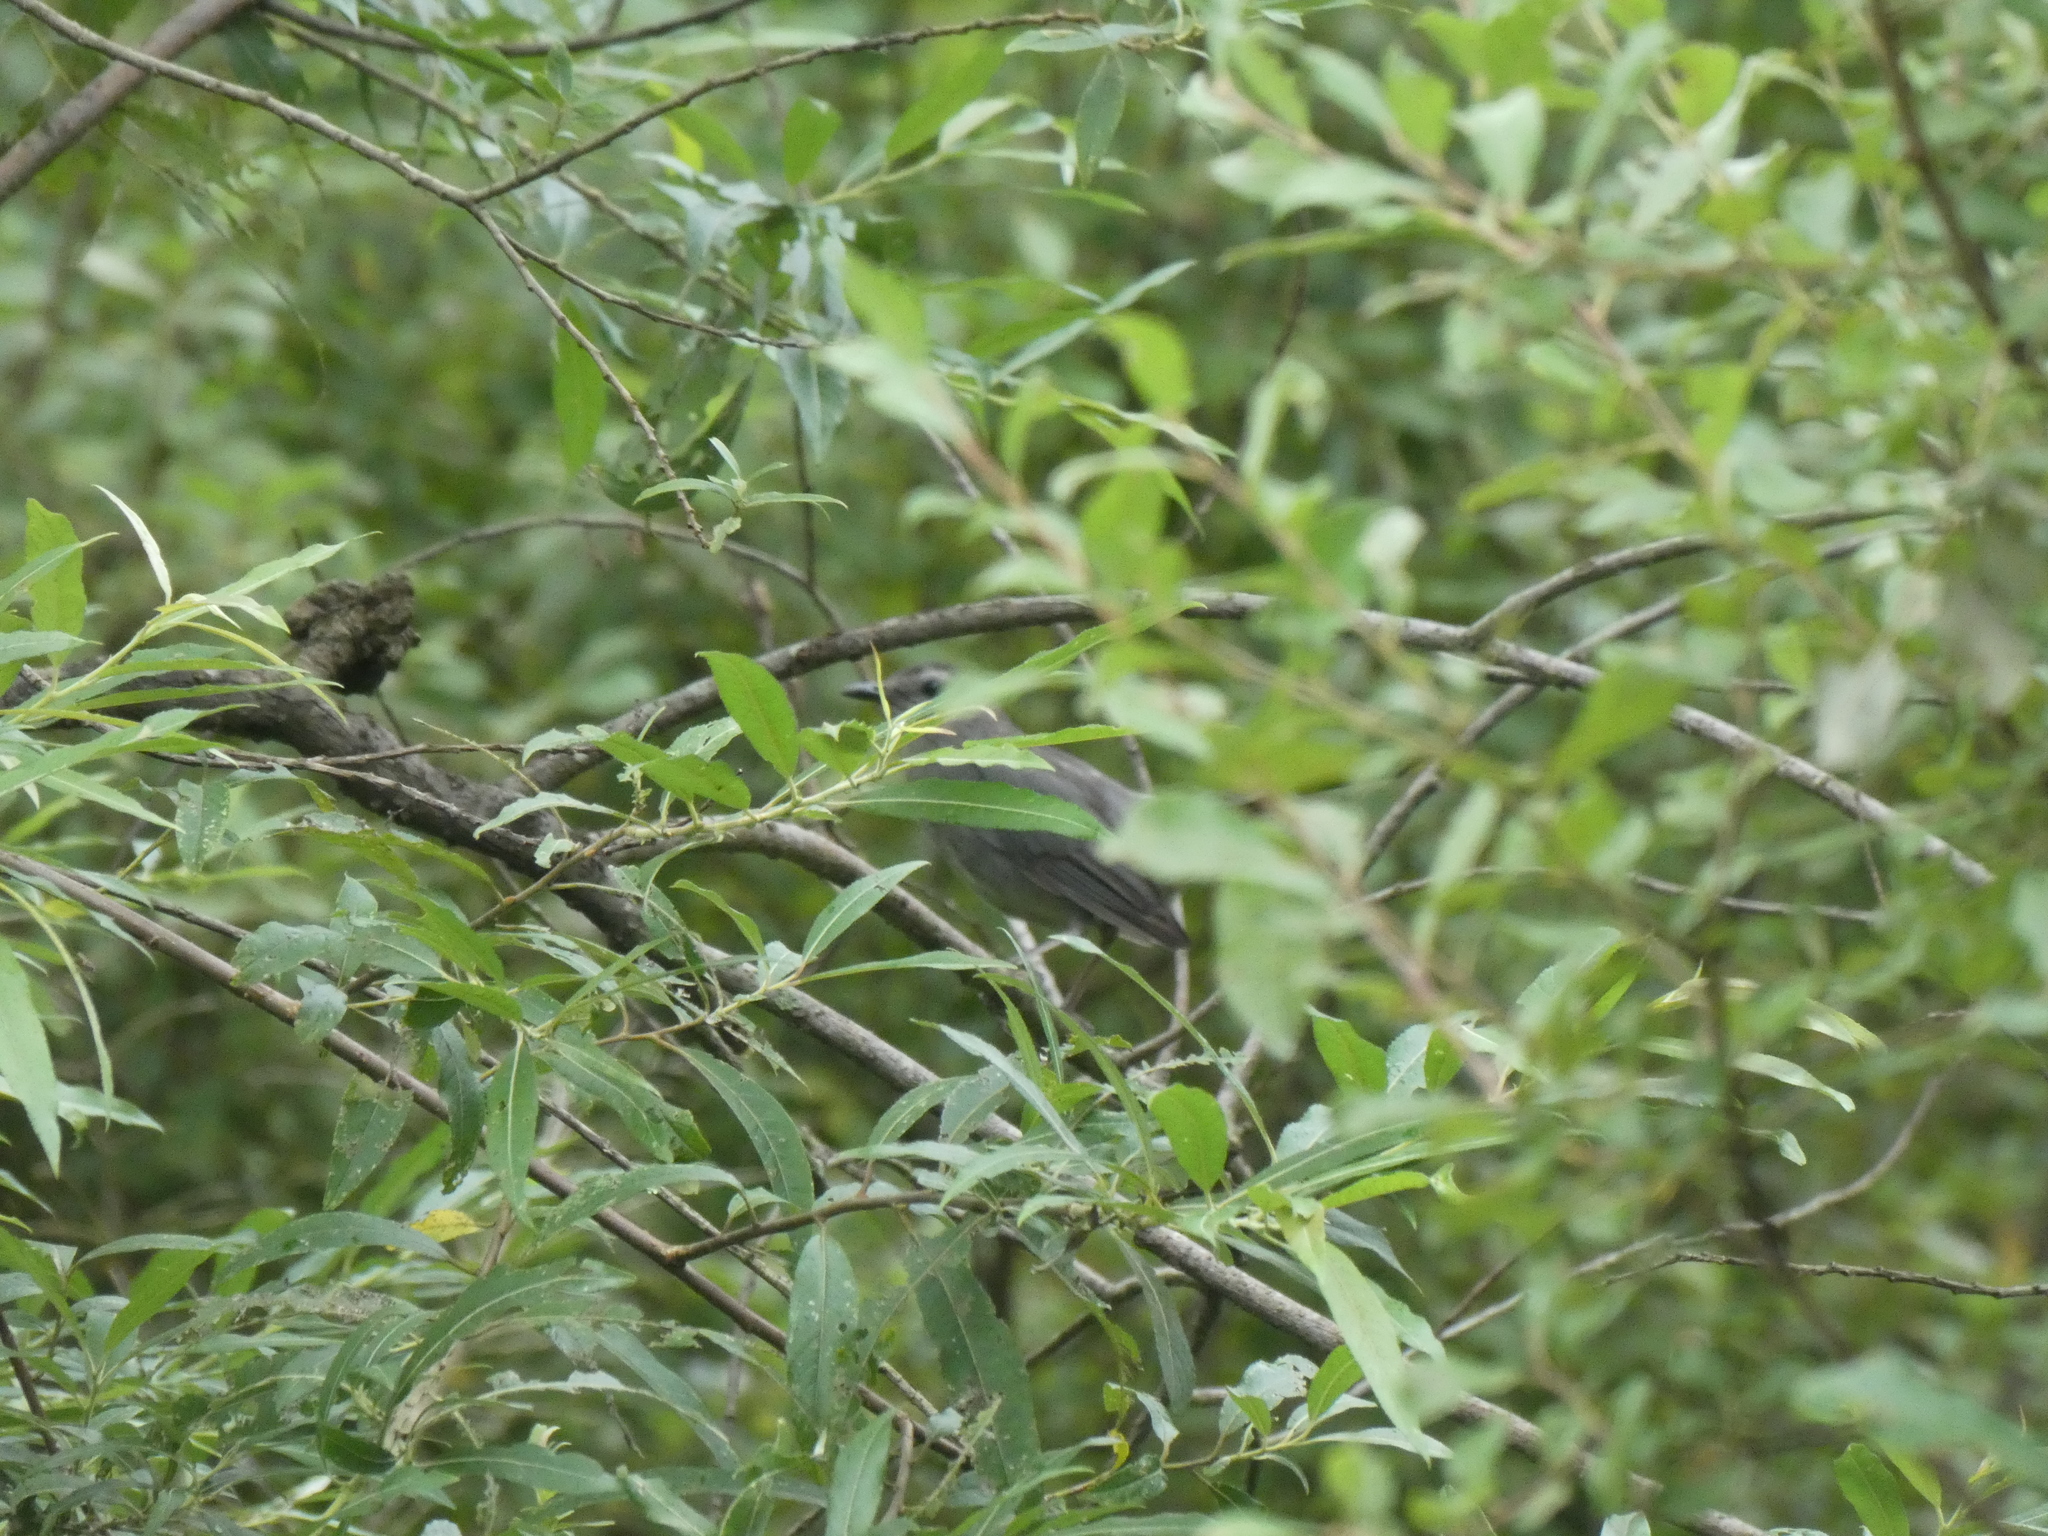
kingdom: Animalia
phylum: Chordata
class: Aves
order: Passeriformes
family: Mimidae
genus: Dumetella
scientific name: Dumetella carolinensis
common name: Gray catbird
